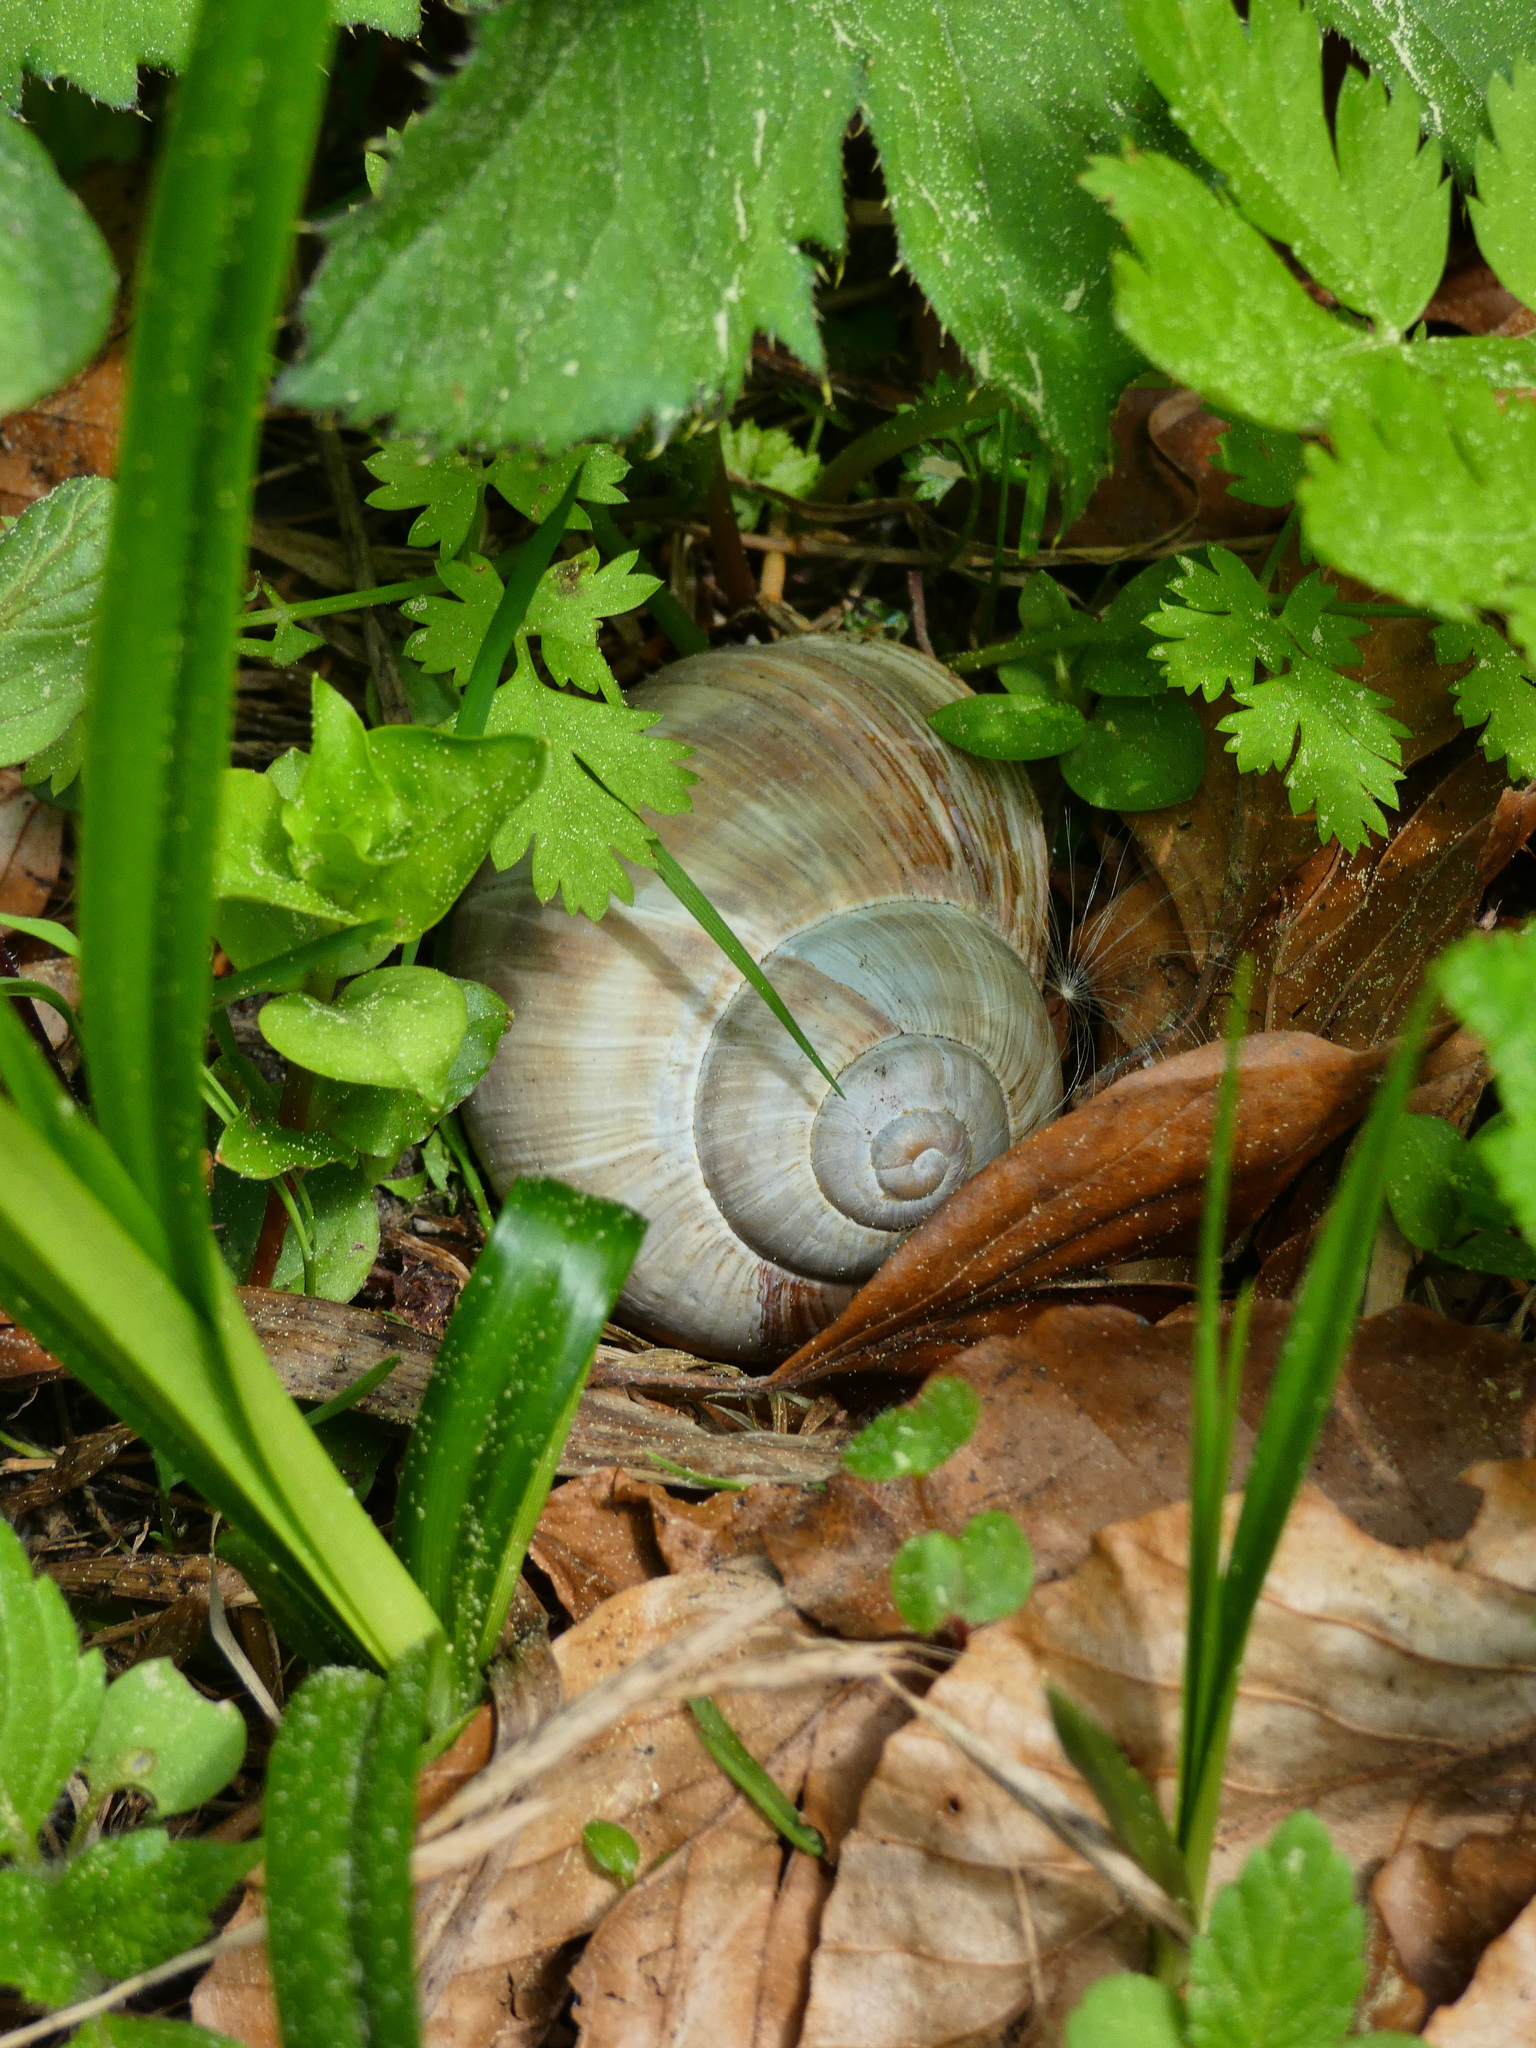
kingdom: Animalia
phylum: Mollusca
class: Gastropoda
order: Stylommatophora
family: Helicidae
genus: Helix
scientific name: Helix pomatia
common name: Roman snail
